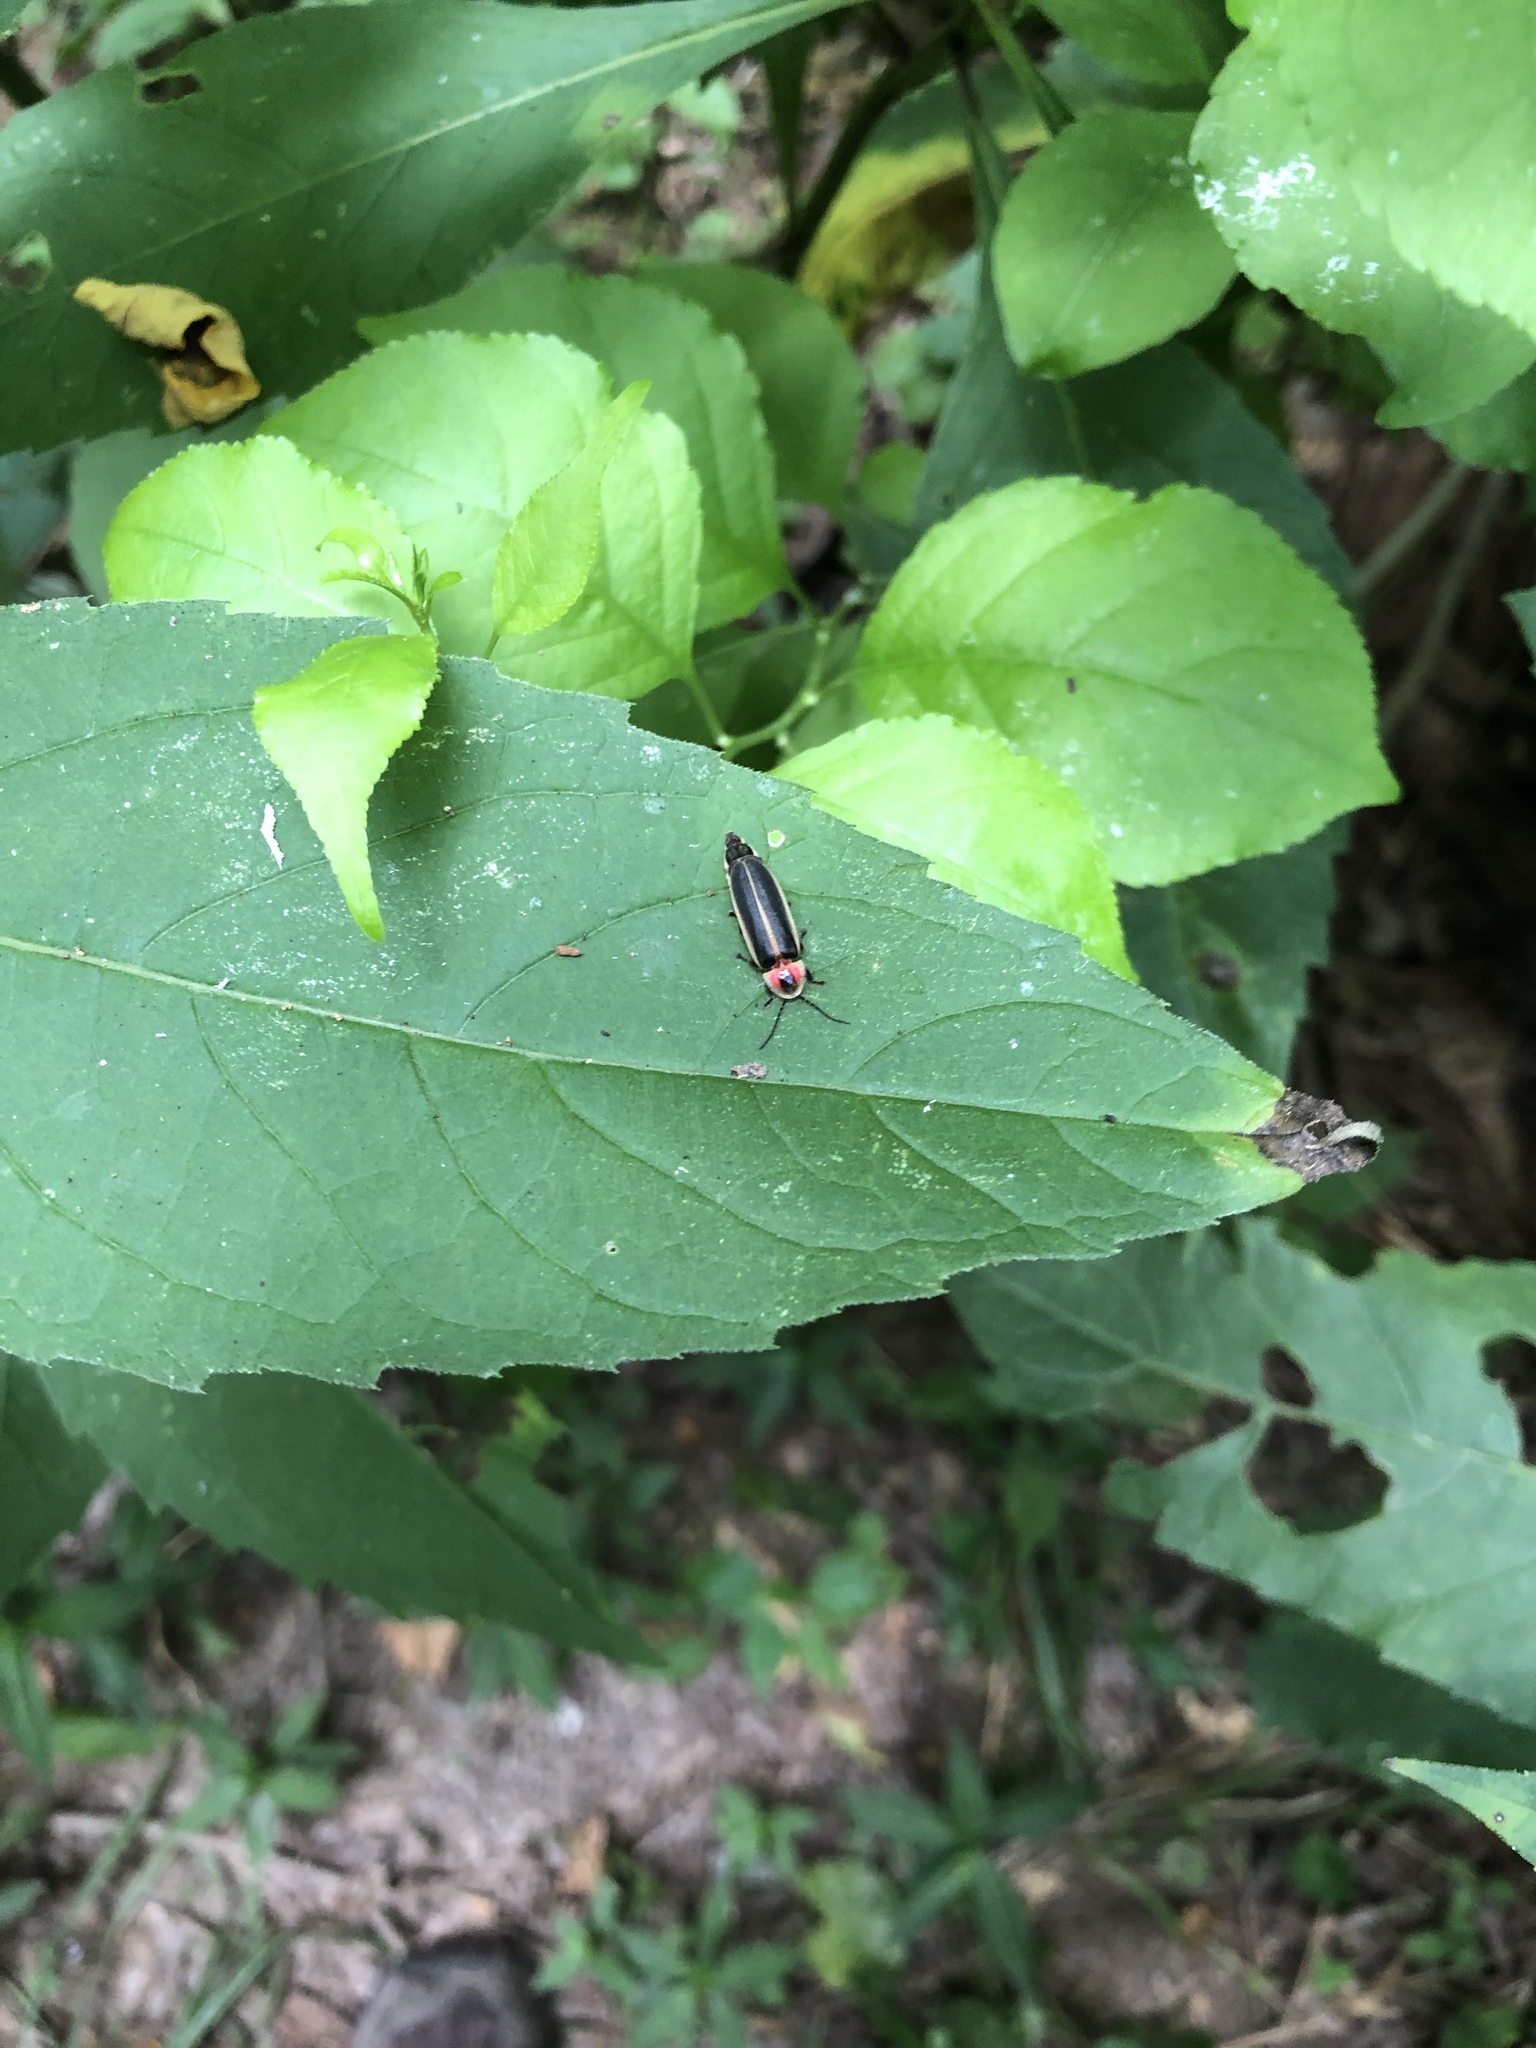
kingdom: Animalia
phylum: Arthropoda
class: Insecta
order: Coleoptera
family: Lampyridae
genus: Photinus
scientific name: Photinus pyralis
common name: Big dipper firefly
